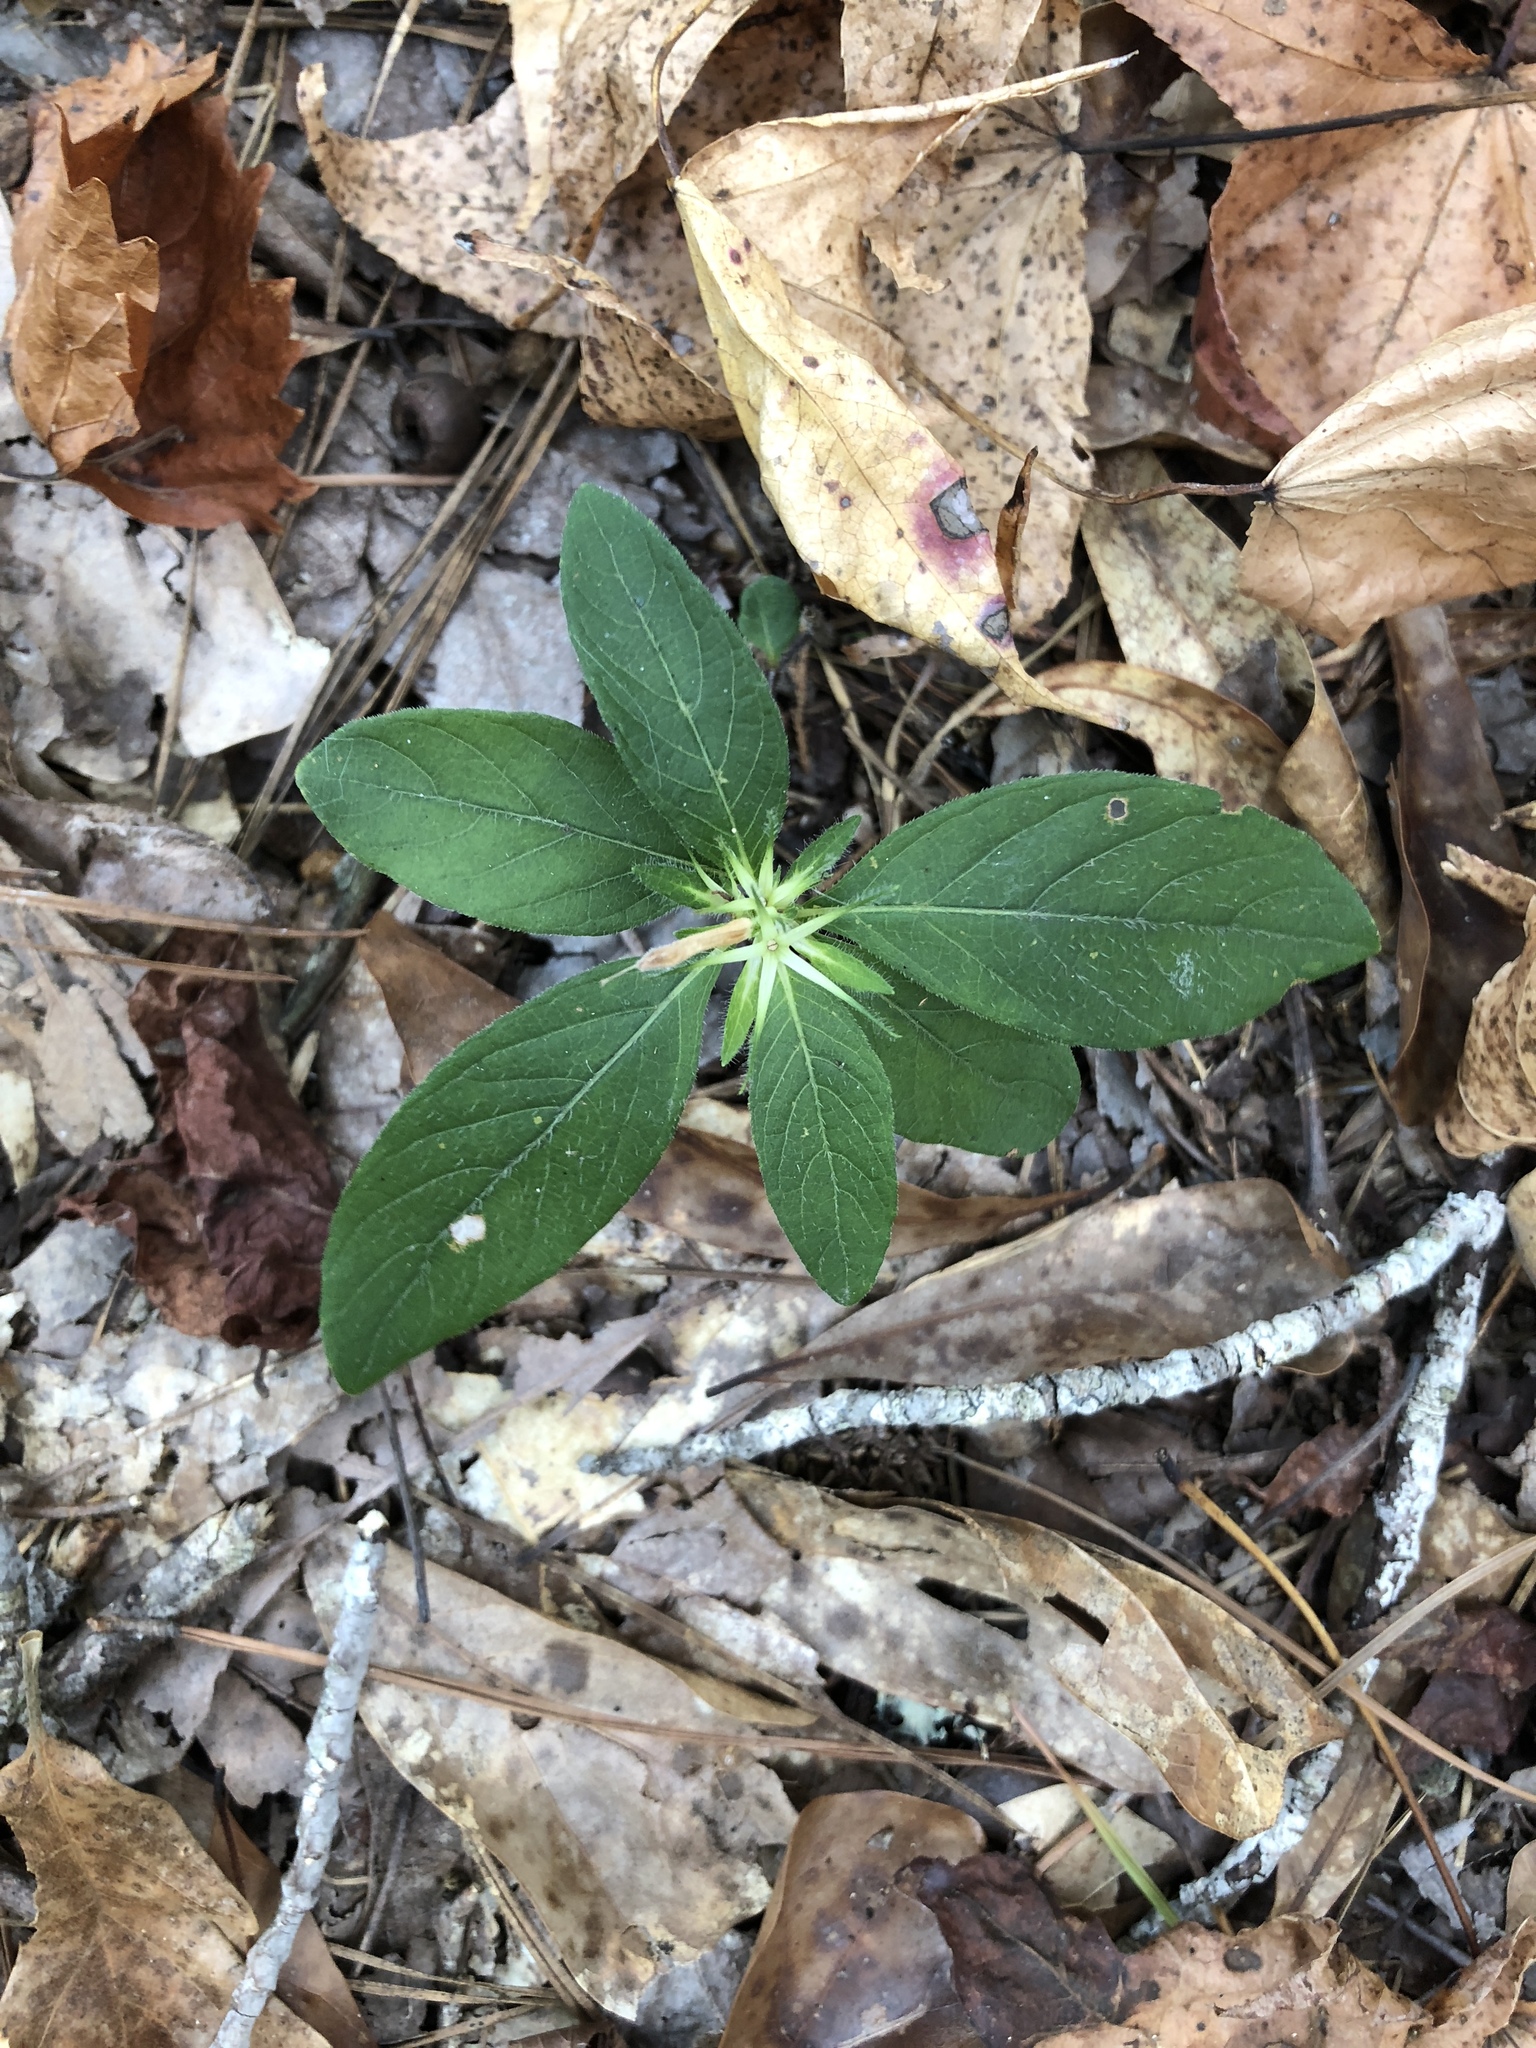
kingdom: Plantae
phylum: Tracheophyta
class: Magnoliopsida
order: Lamiales
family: Acanthaceae
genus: Ruellia
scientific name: Ruellia caroliniensis
